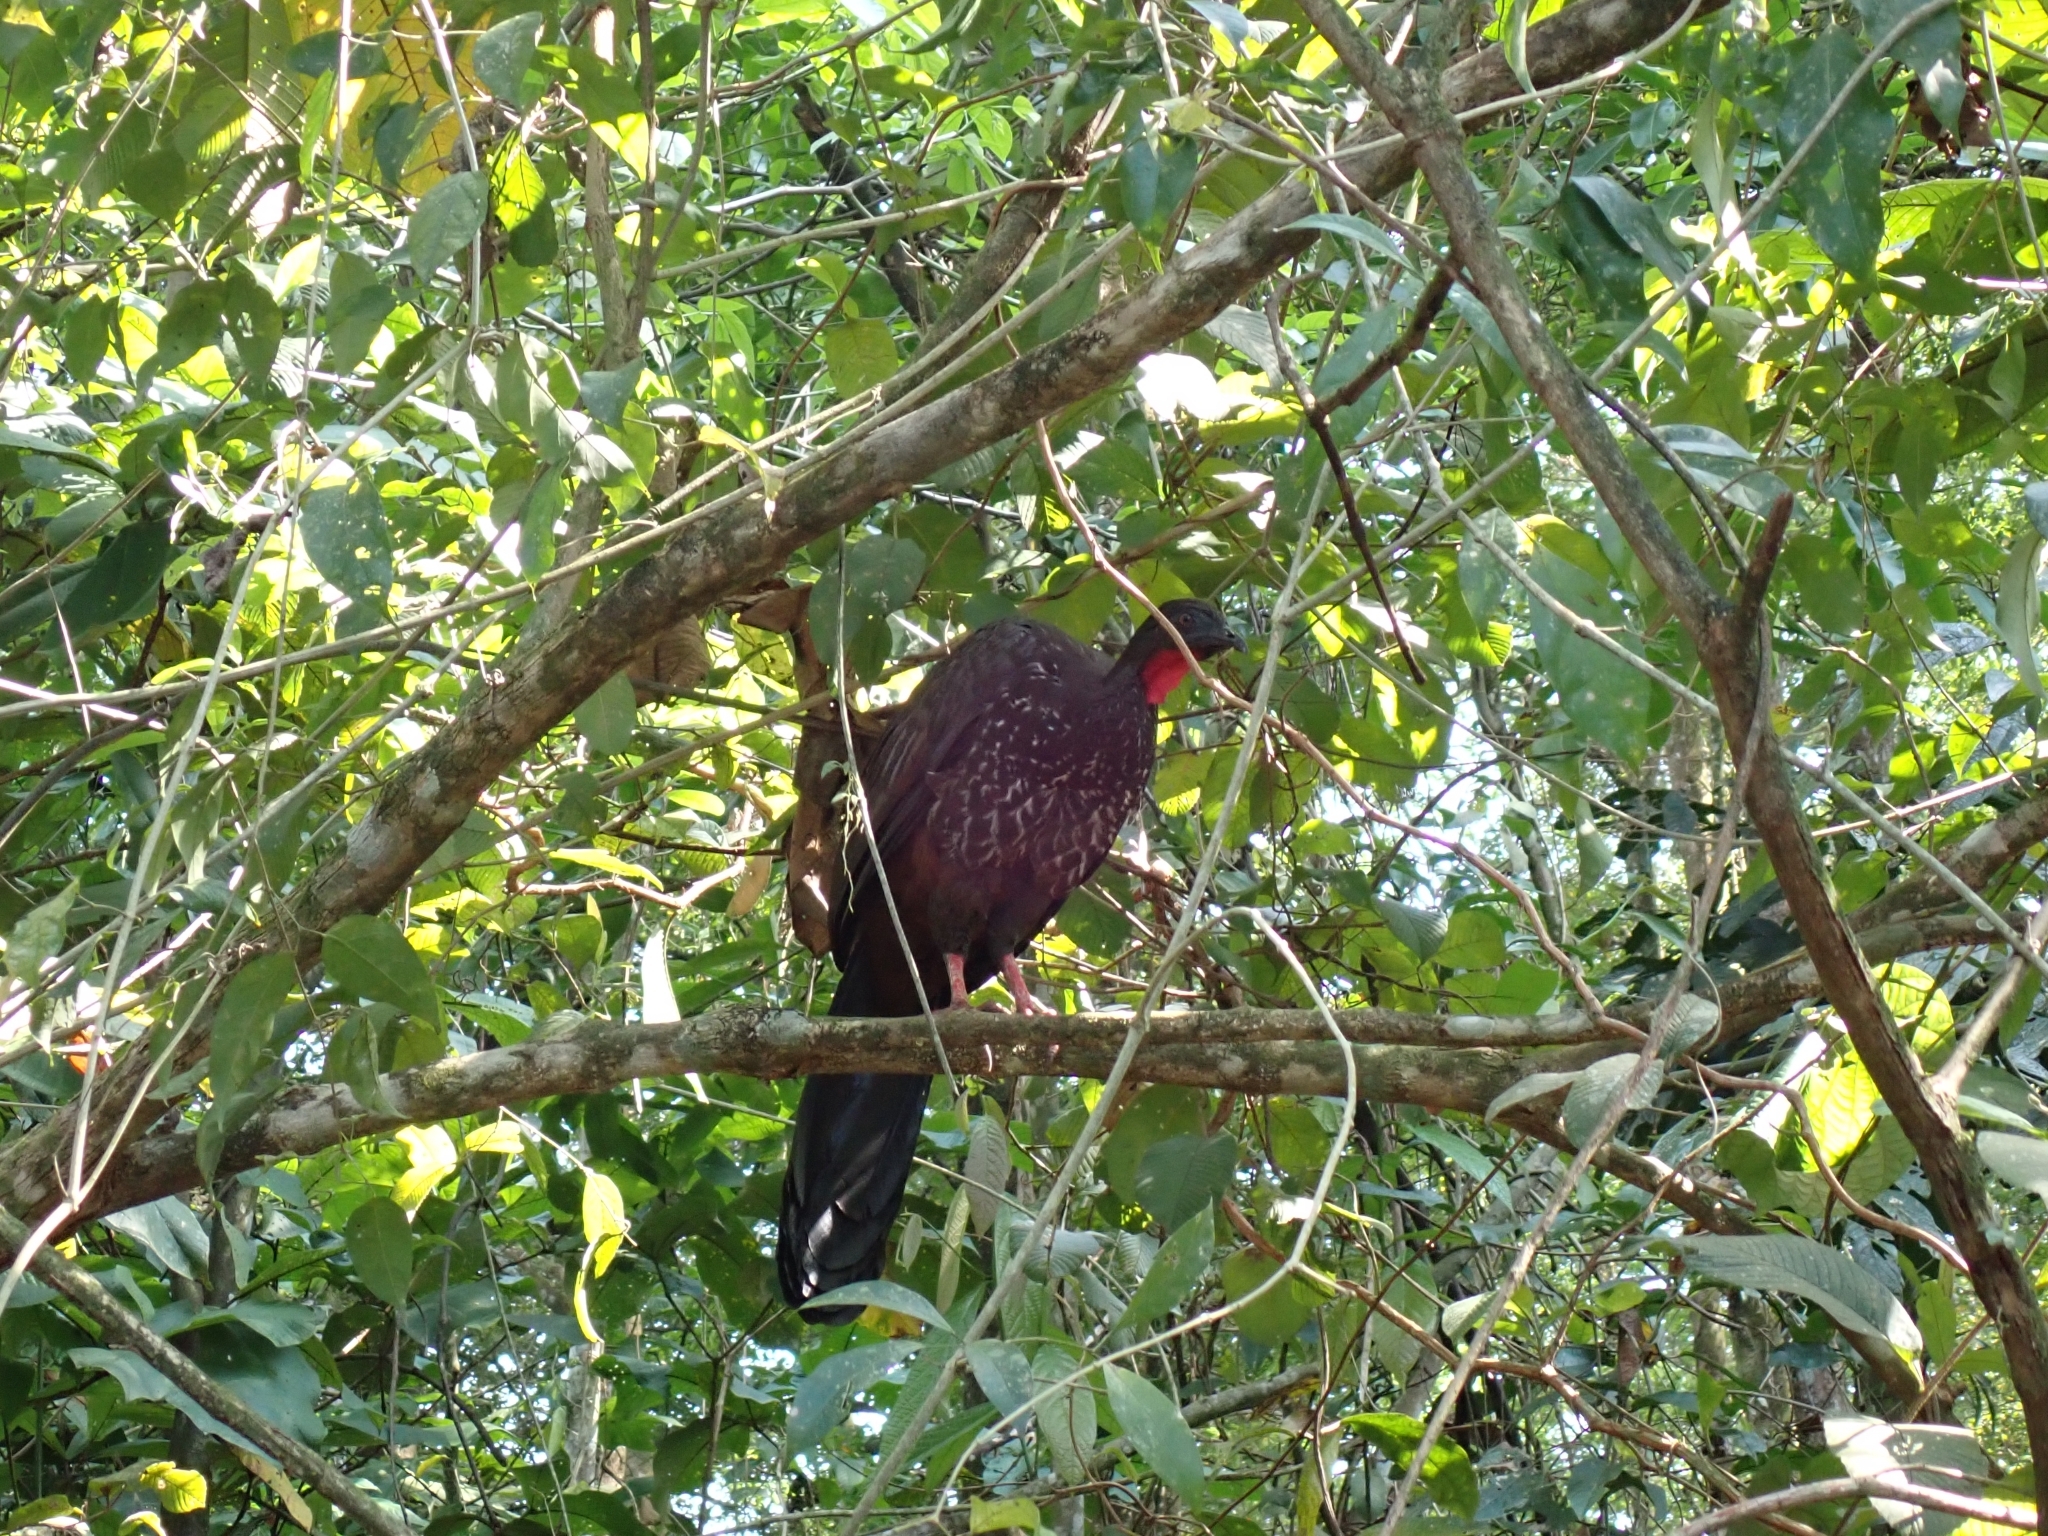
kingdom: Animalia
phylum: Chordata
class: Aves
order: Galliformes
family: Cracidae
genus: Penelope
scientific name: Penelope purpurascens
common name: Crested guan
